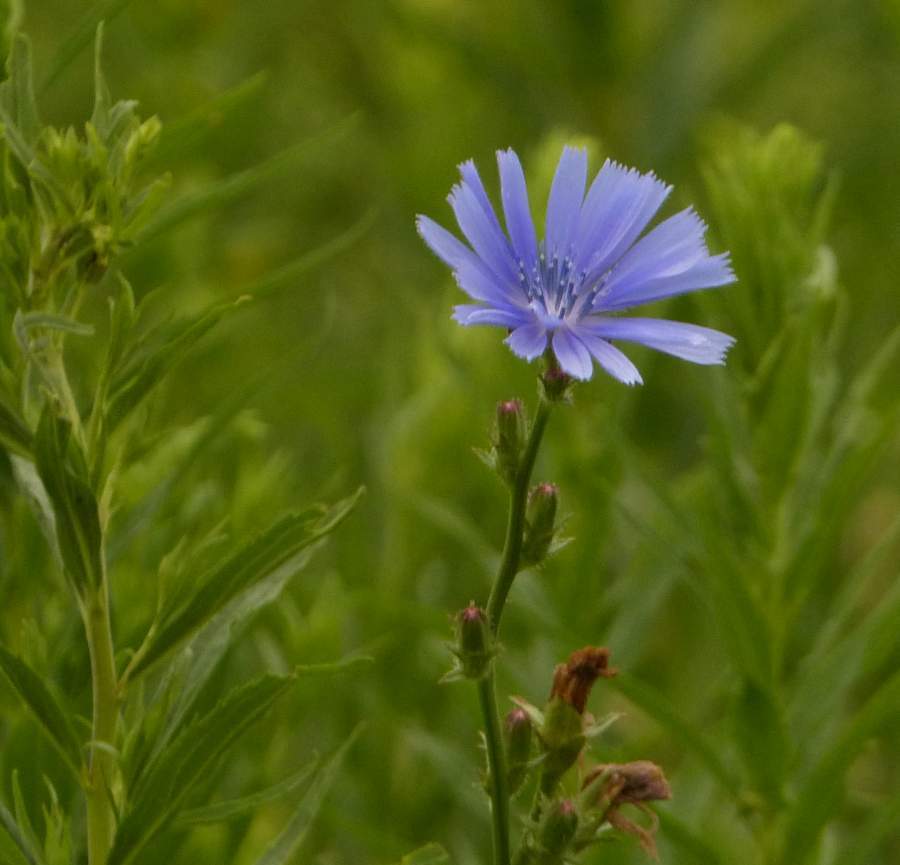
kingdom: Plantae
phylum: Tracheophyta
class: Magnoliopsida
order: Asterales
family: Asteraceae
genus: Cichorium
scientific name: Cichorium intybus
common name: Chicory
